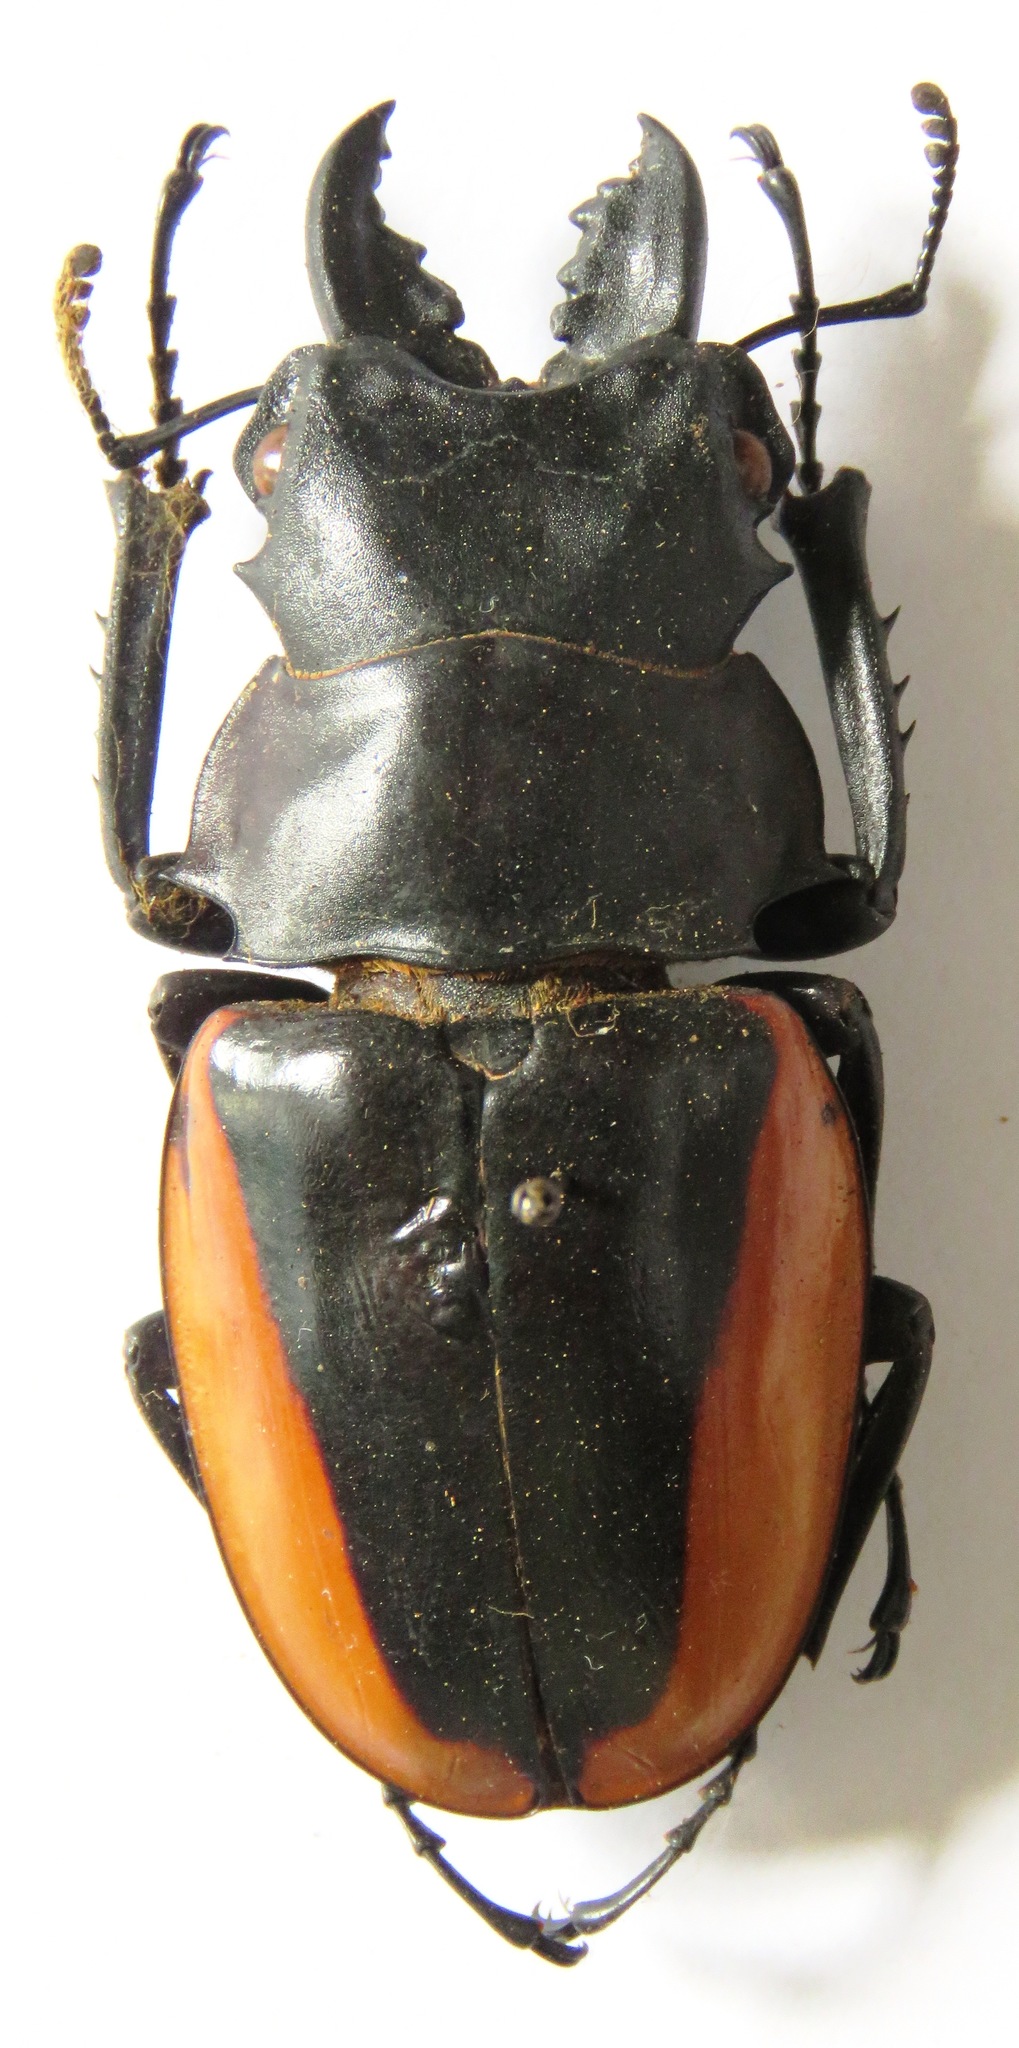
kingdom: Animalia
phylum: Arthropoda
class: Insecta
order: Coleoptera
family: Lucanidae
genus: Odontolabis
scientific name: Odontolabis cuvera
